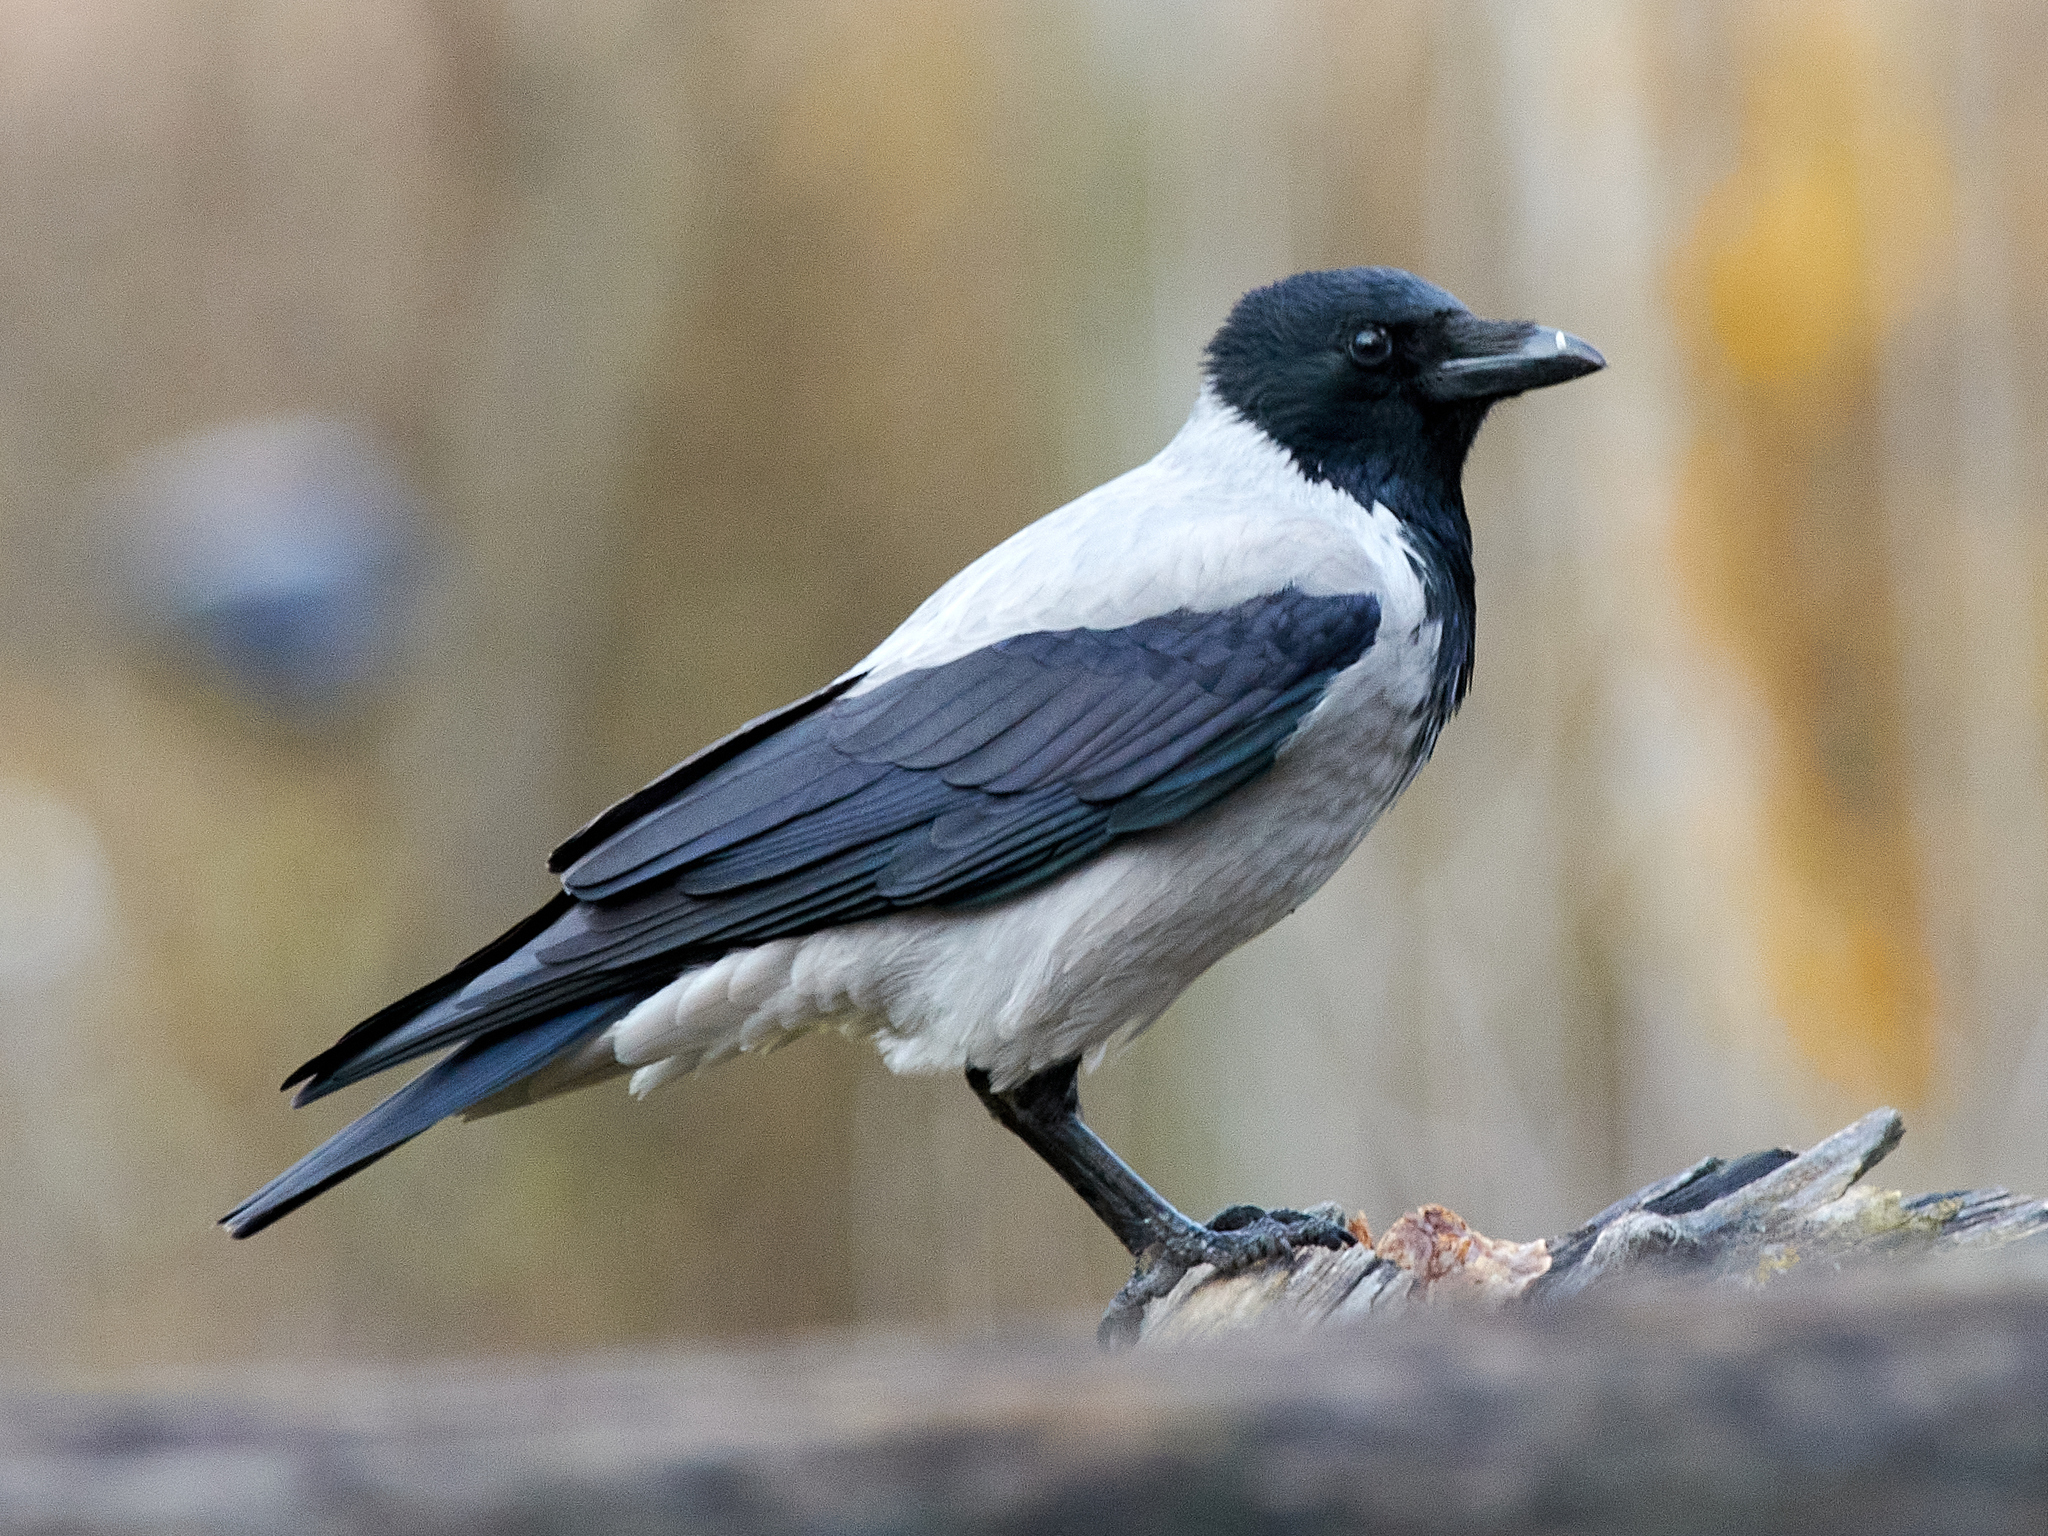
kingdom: Animalia
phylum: Chordata
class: Aves
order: Passeriformes
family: Corvidae
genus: Corvus
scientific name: Corvus cornix
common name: Hooded crow
